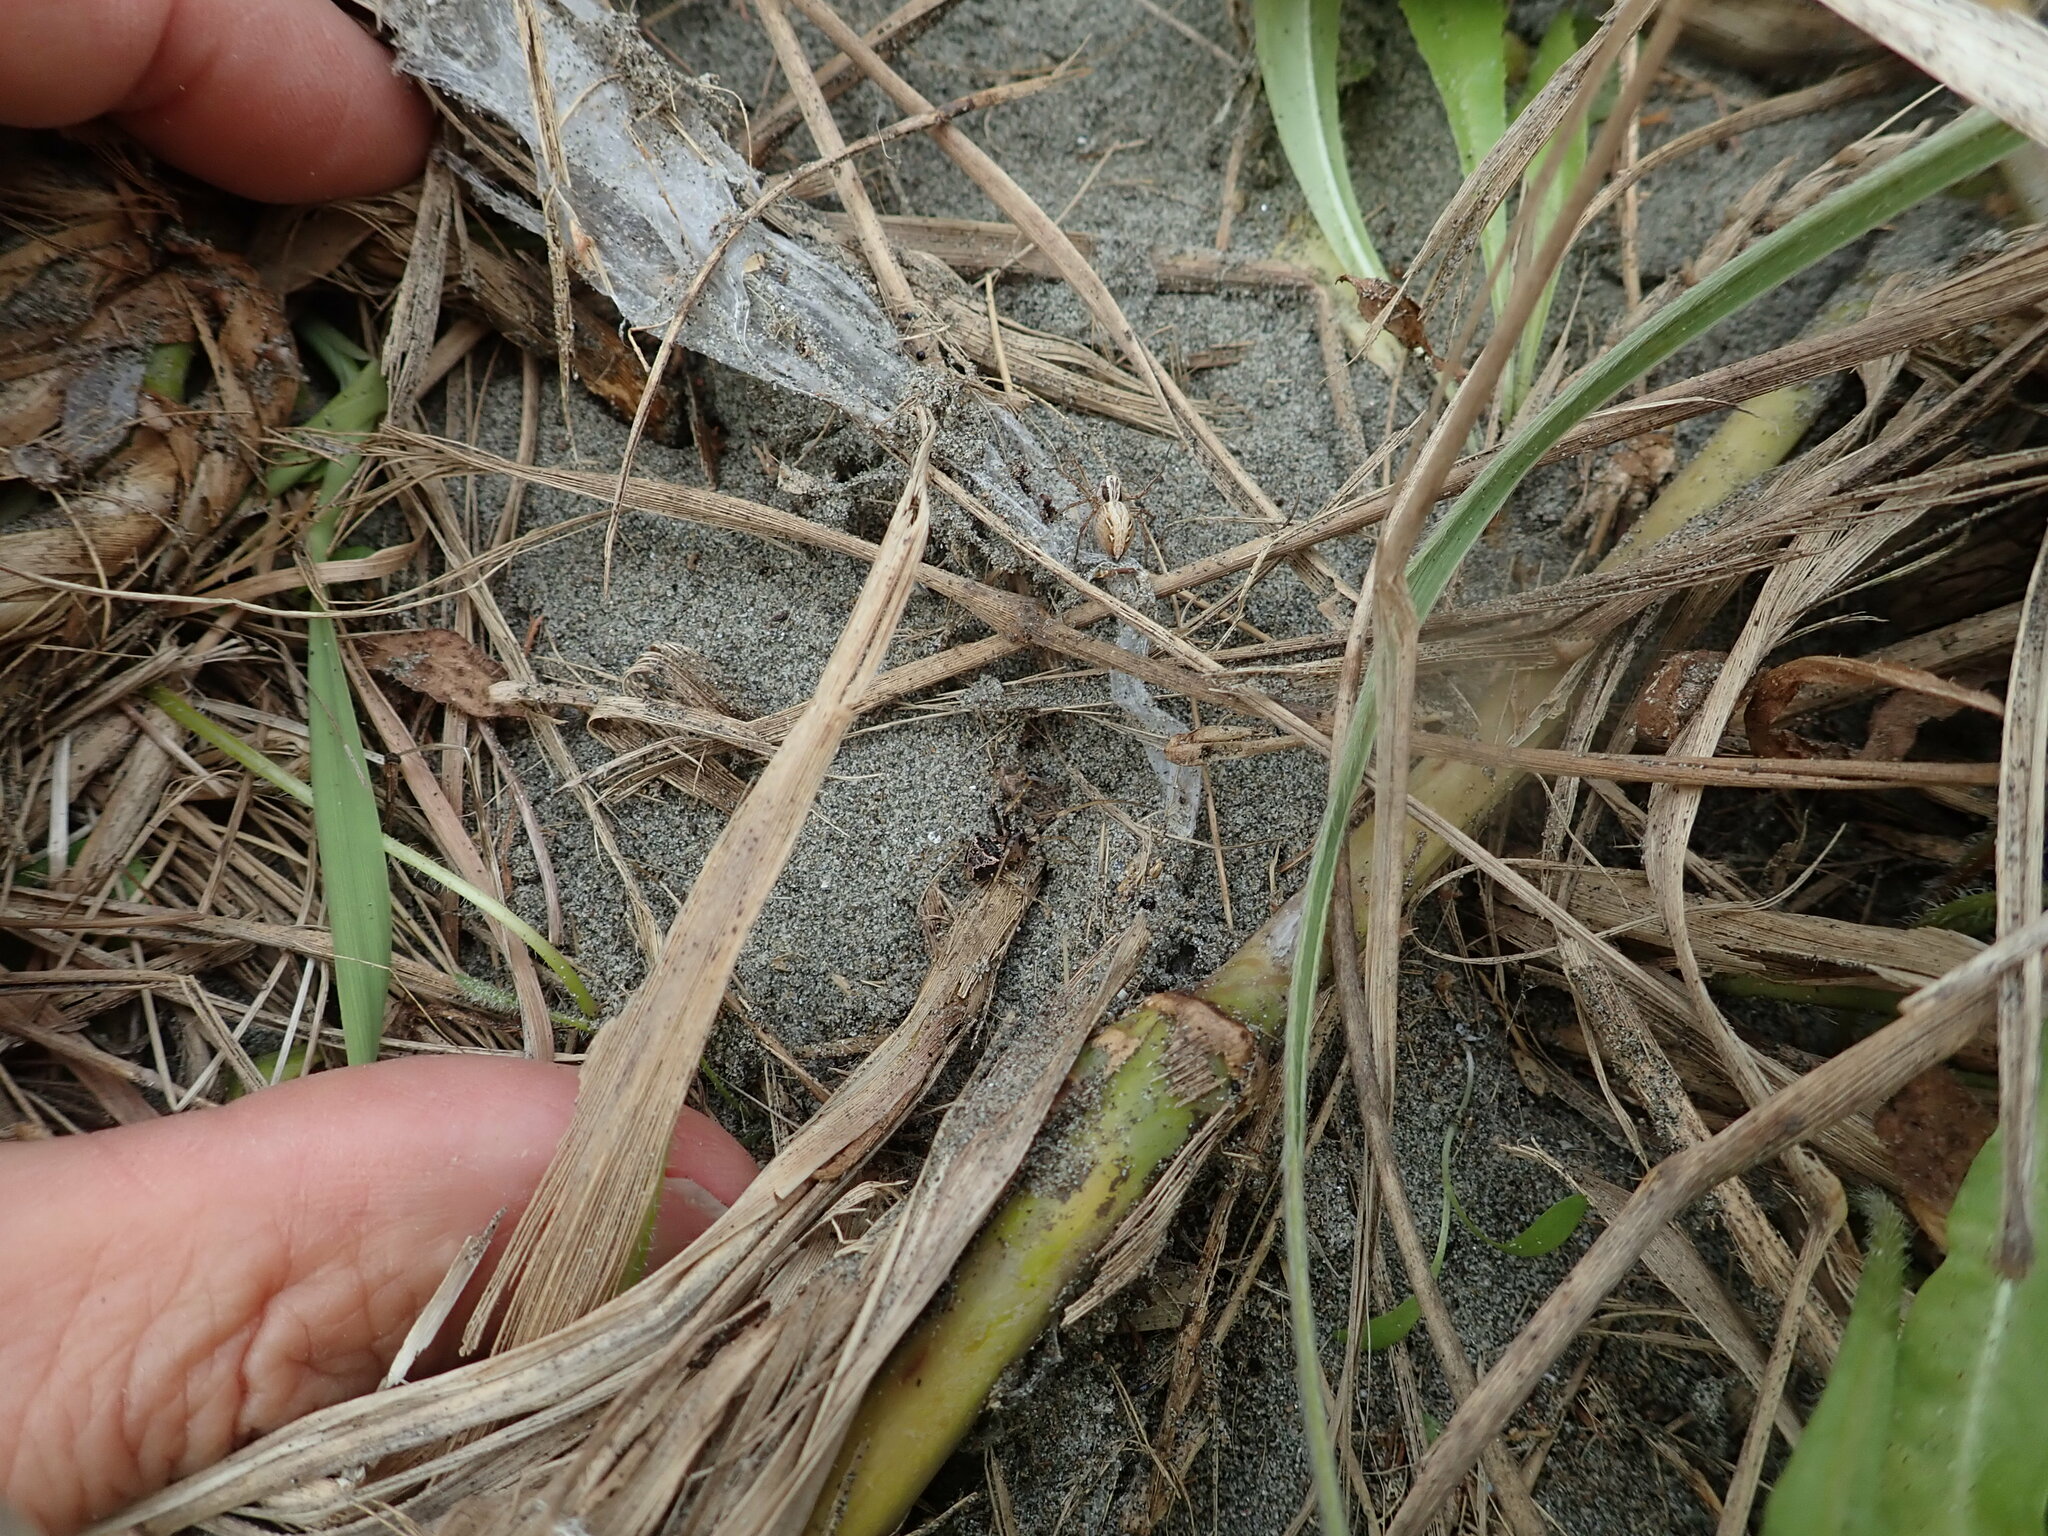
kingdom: Animalia
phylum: Arthropoda
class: Arachnida
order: Araneae
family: Oxyopidae
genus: Oxyopes
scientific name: Oxyopes gracilipes
